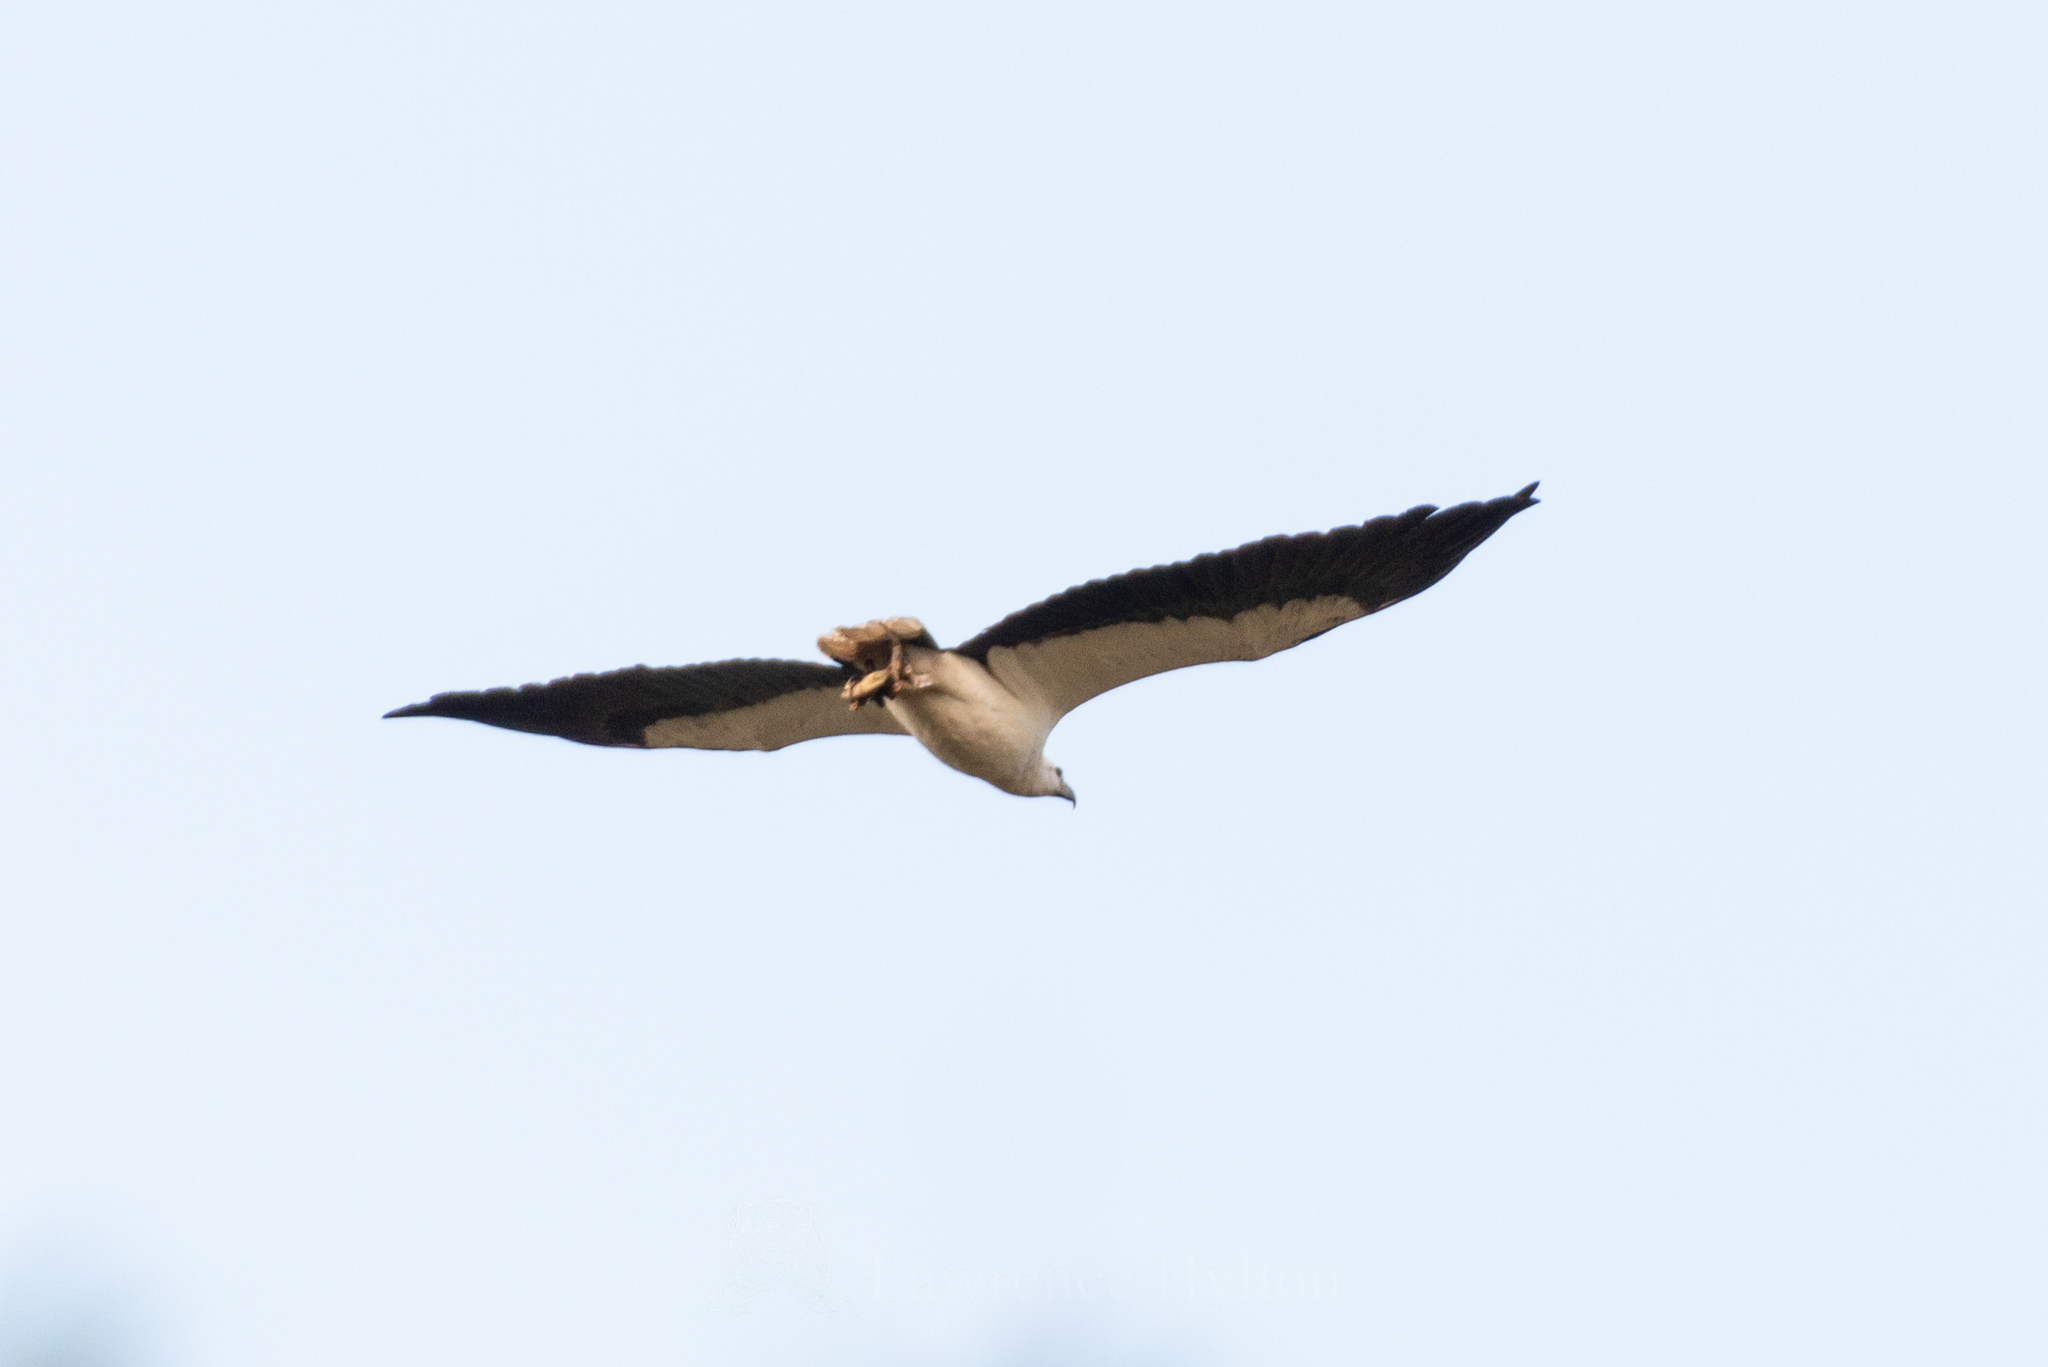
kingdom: Animalia
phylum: Chordata
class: Aves
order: Accipitriformes
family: Accipitridae
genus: Haliaeetus
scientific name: Haliaeetus leucogaster
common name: White-bellied sea eagle
